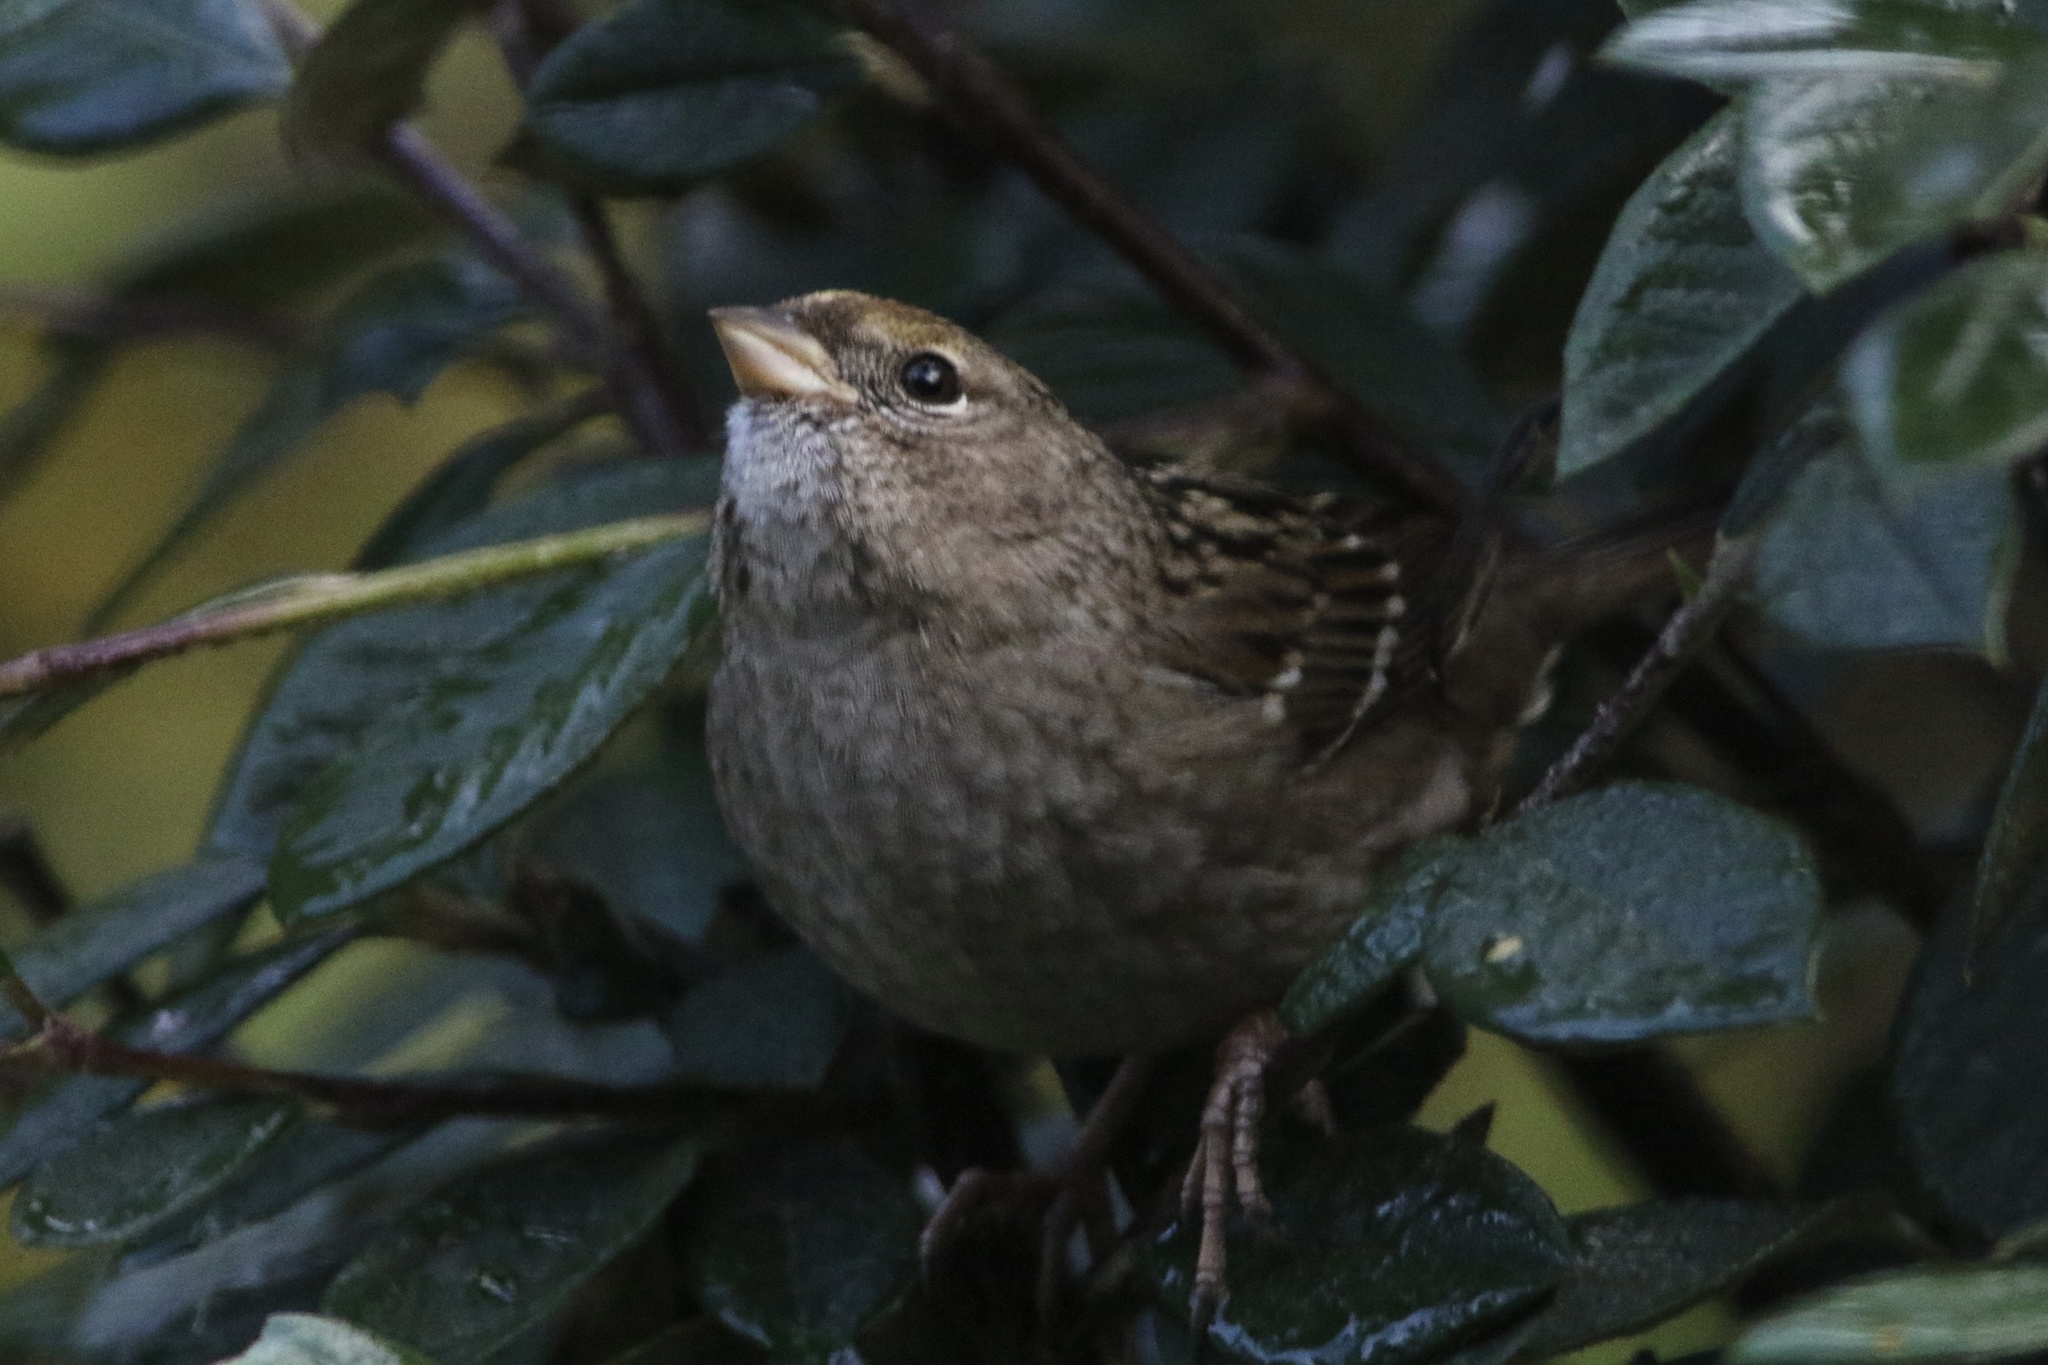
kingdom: Animalia
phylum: Chordata
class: Aves
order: Passeriformes
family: Passerellidae
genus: Zonotrichia
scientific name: Zonotrichia atricapilla
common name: Golden-crowned sparrow
